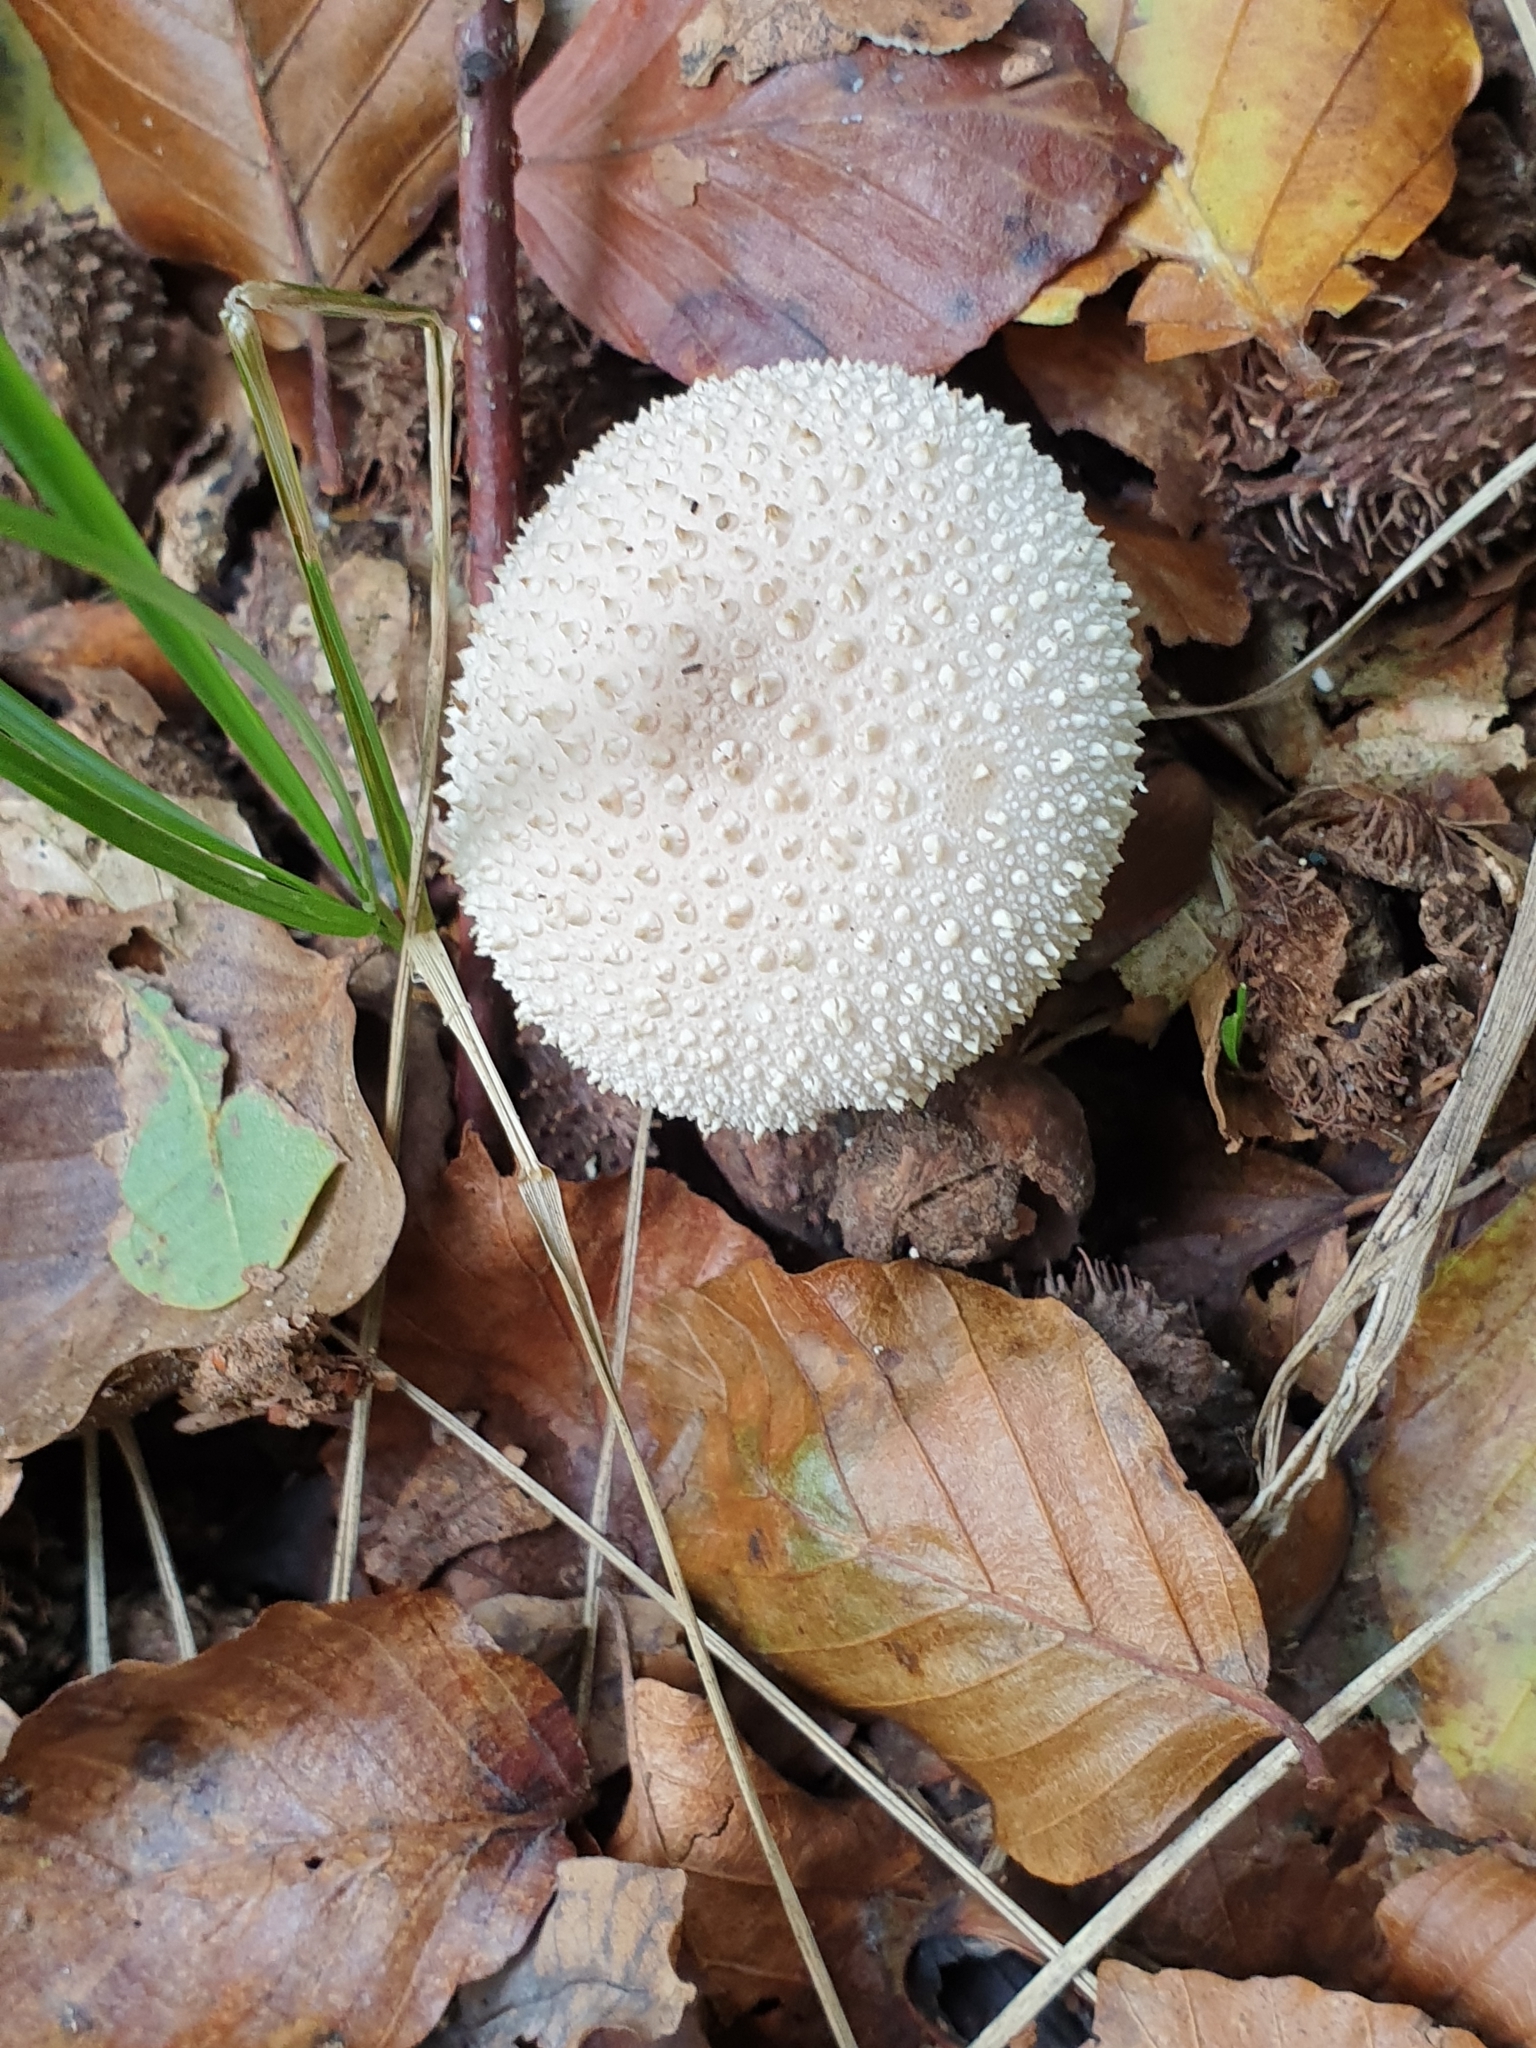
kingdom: Fungi
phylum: Basidiomycota
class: Agaricomycetes
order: Agaricales
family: Lycoperdaceae
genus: Lycoperdon
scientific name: Lycoperdon perlatum
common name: Common puffball
